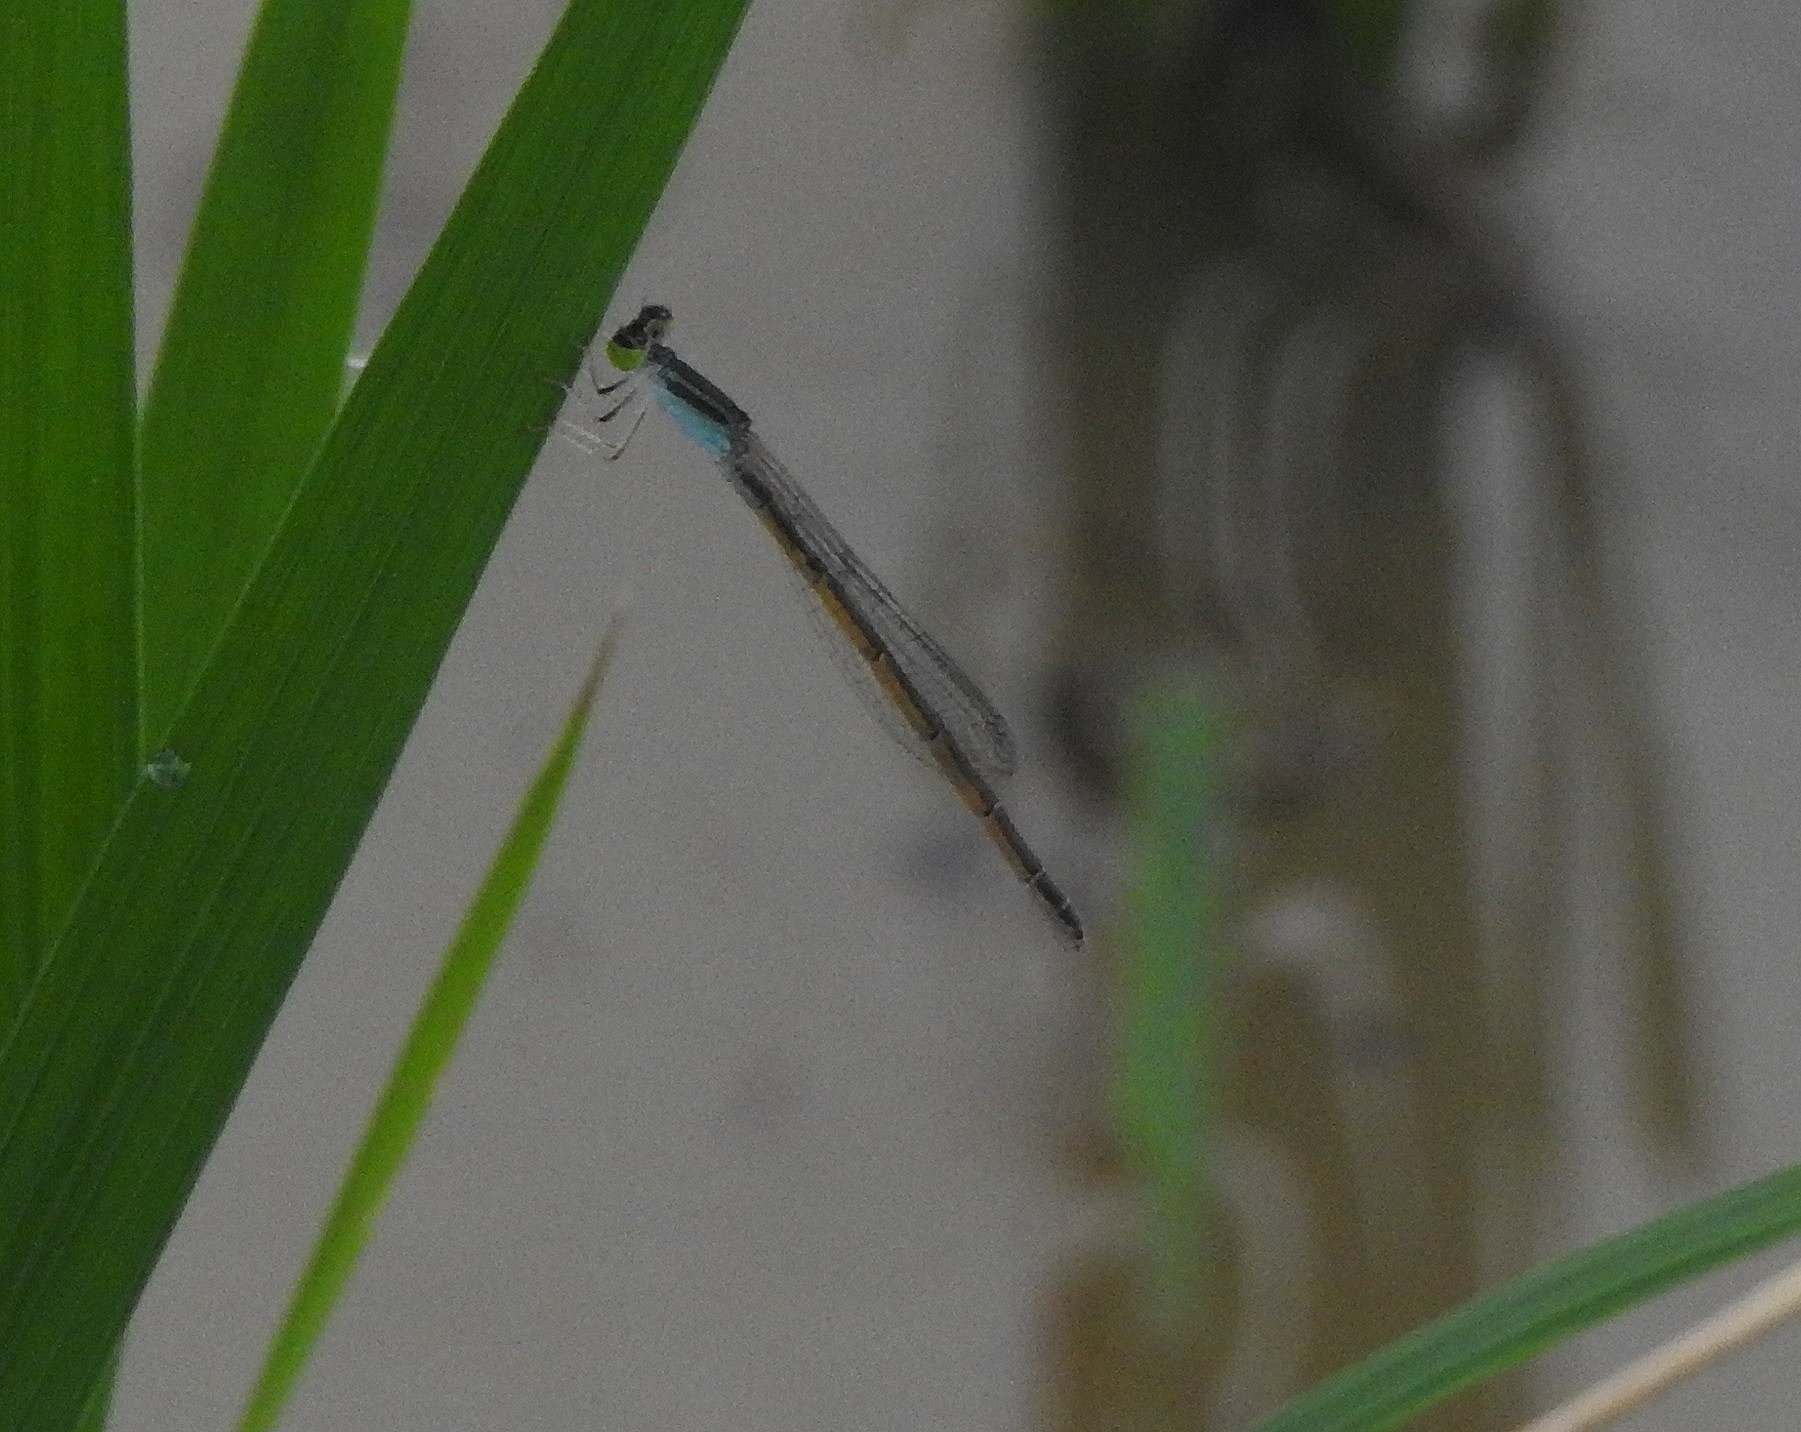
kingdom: Animalia
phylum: Arthropoda
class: Insecta
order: Odonata
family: Coenagrionidae
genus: Ischnura
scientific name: Ischnura rubilio
